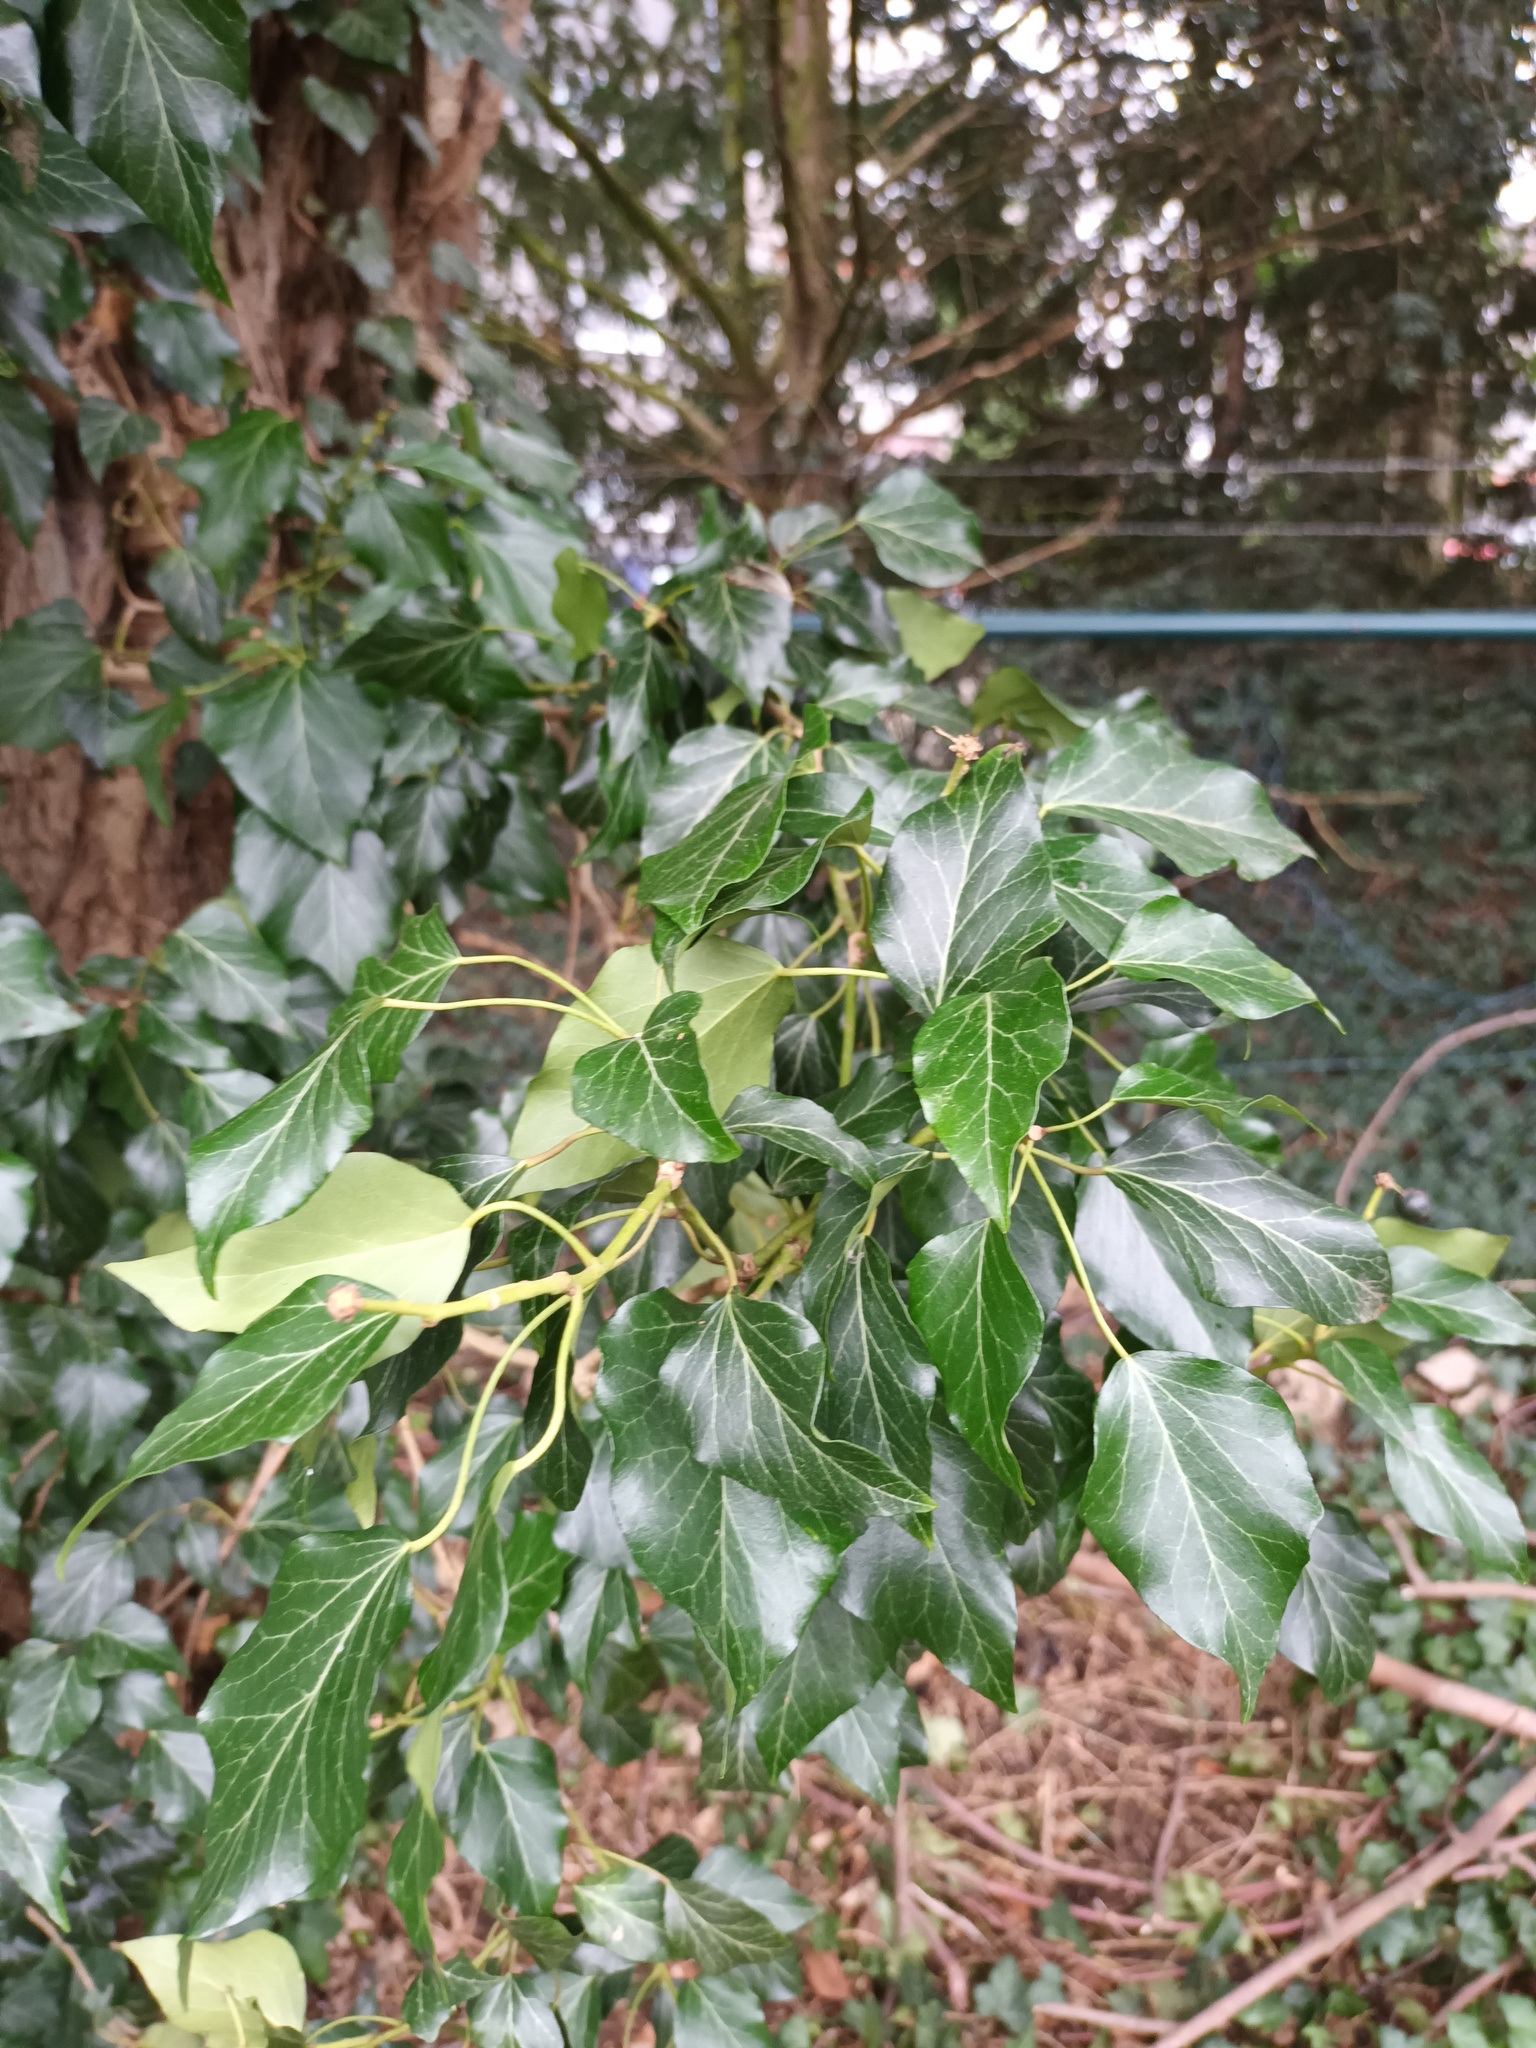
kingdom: Plantae
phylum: Tracheophyta
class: Magnoliopsida
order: Apiales
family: Araliaceae
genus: Hedera
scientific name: Hedera helix
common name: Ivy
